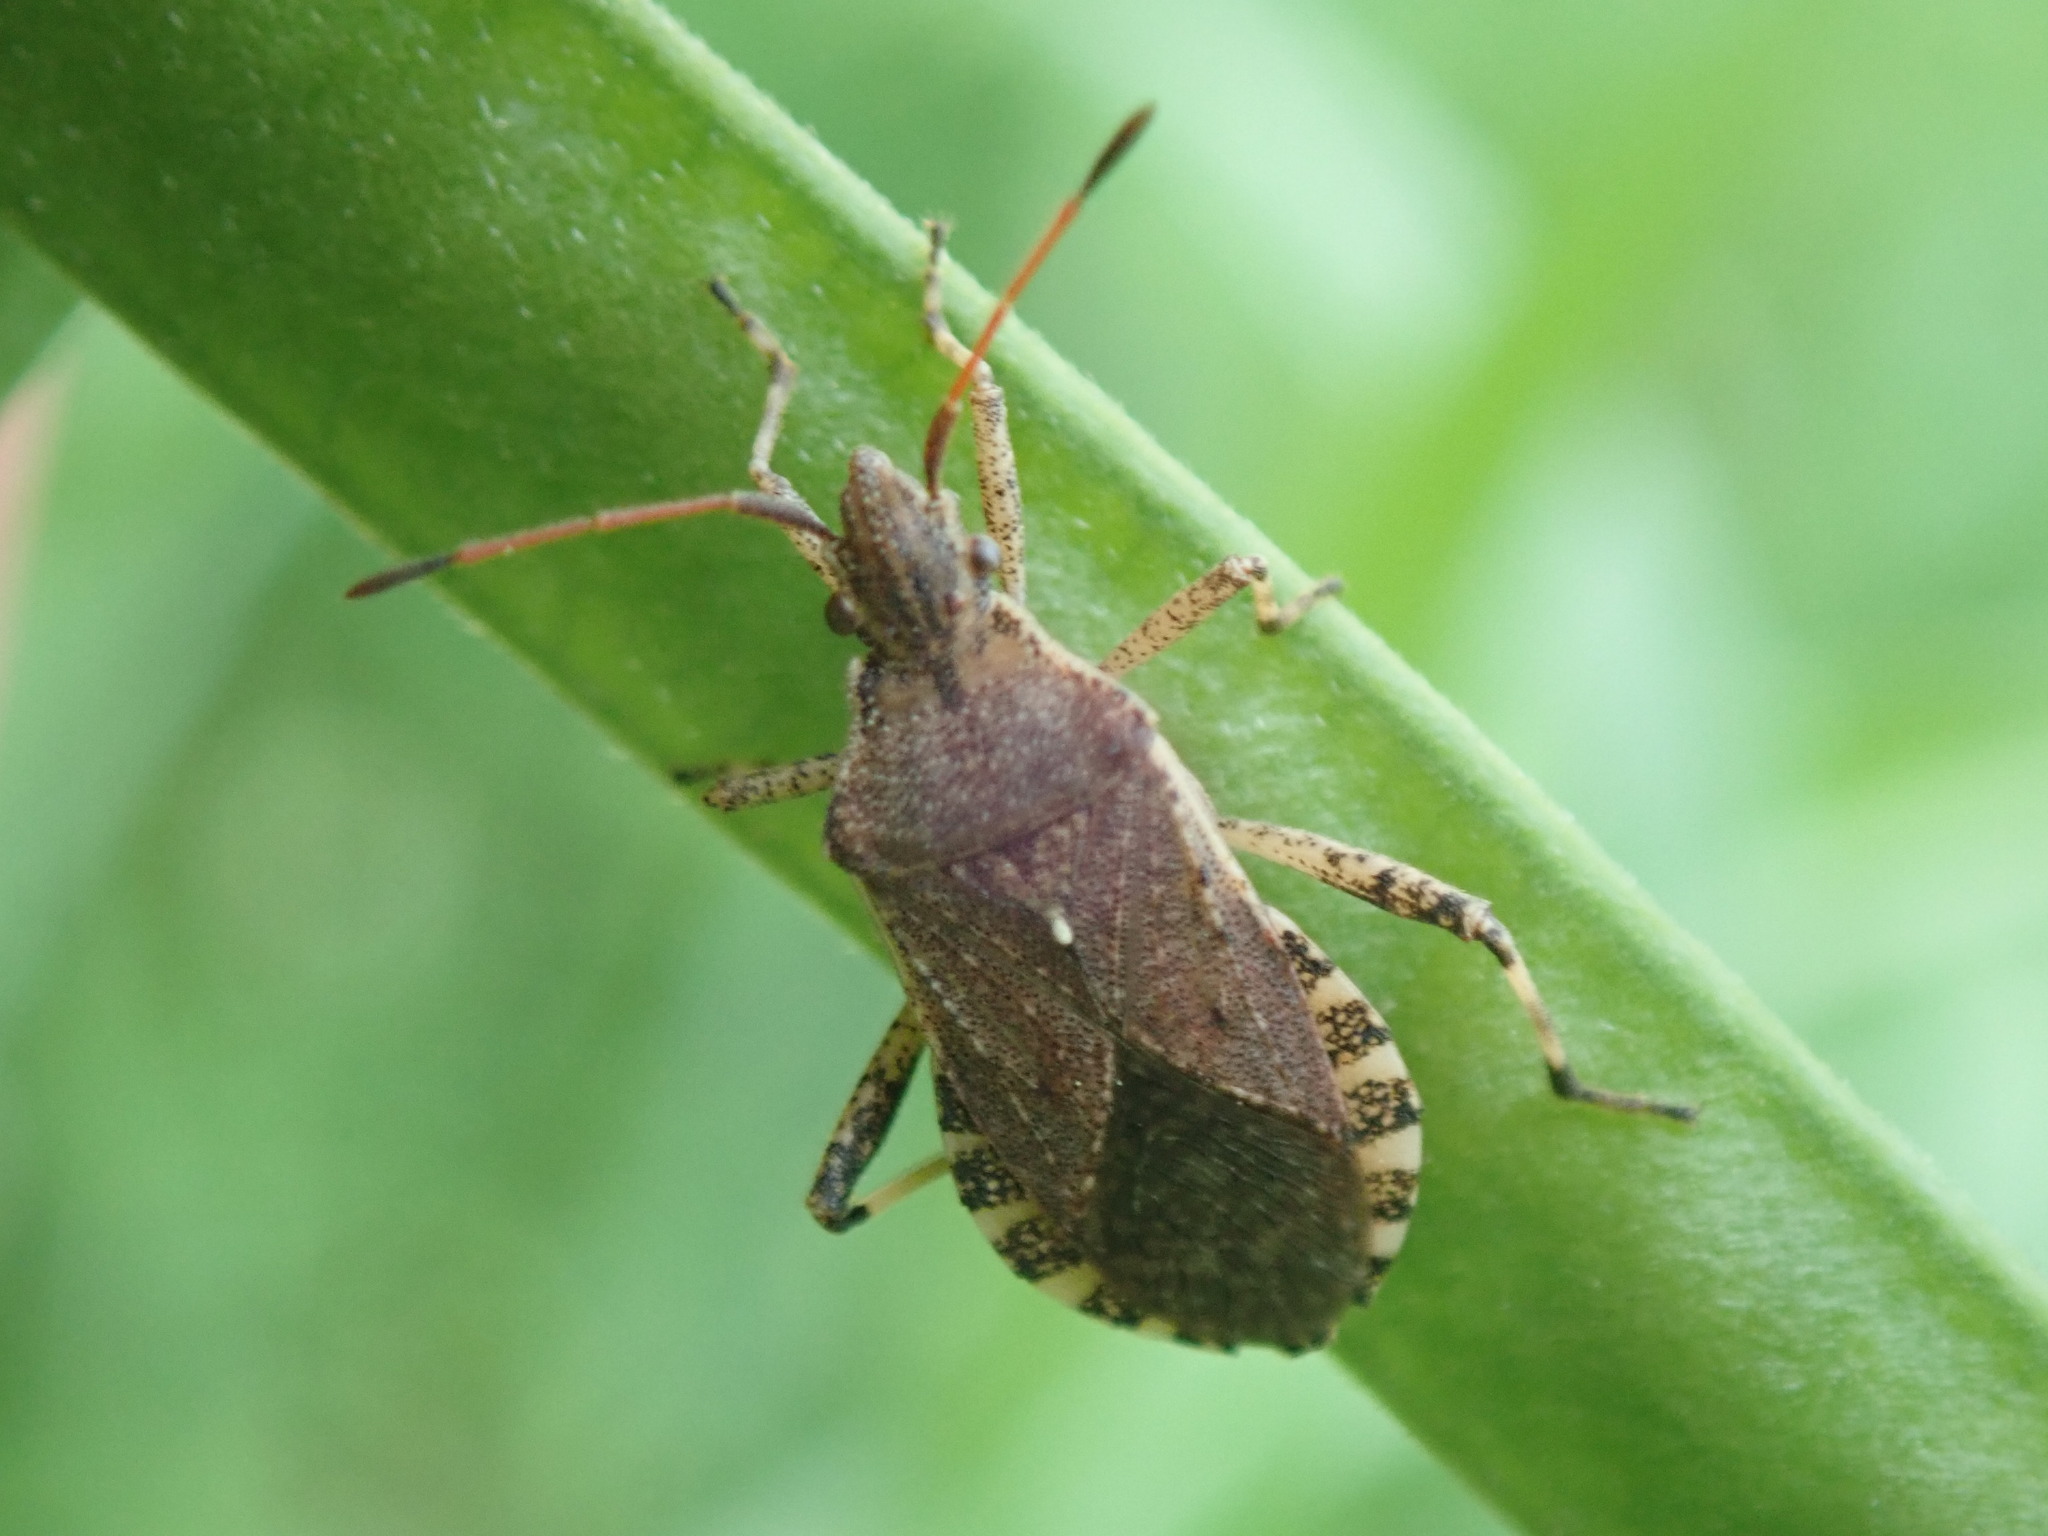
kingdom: Animalia
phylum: Arthropoda
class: Insecta
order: Hemiptera
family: Coreidae
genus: Ceraleptus
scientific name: Ceraleptus gracilicornis
